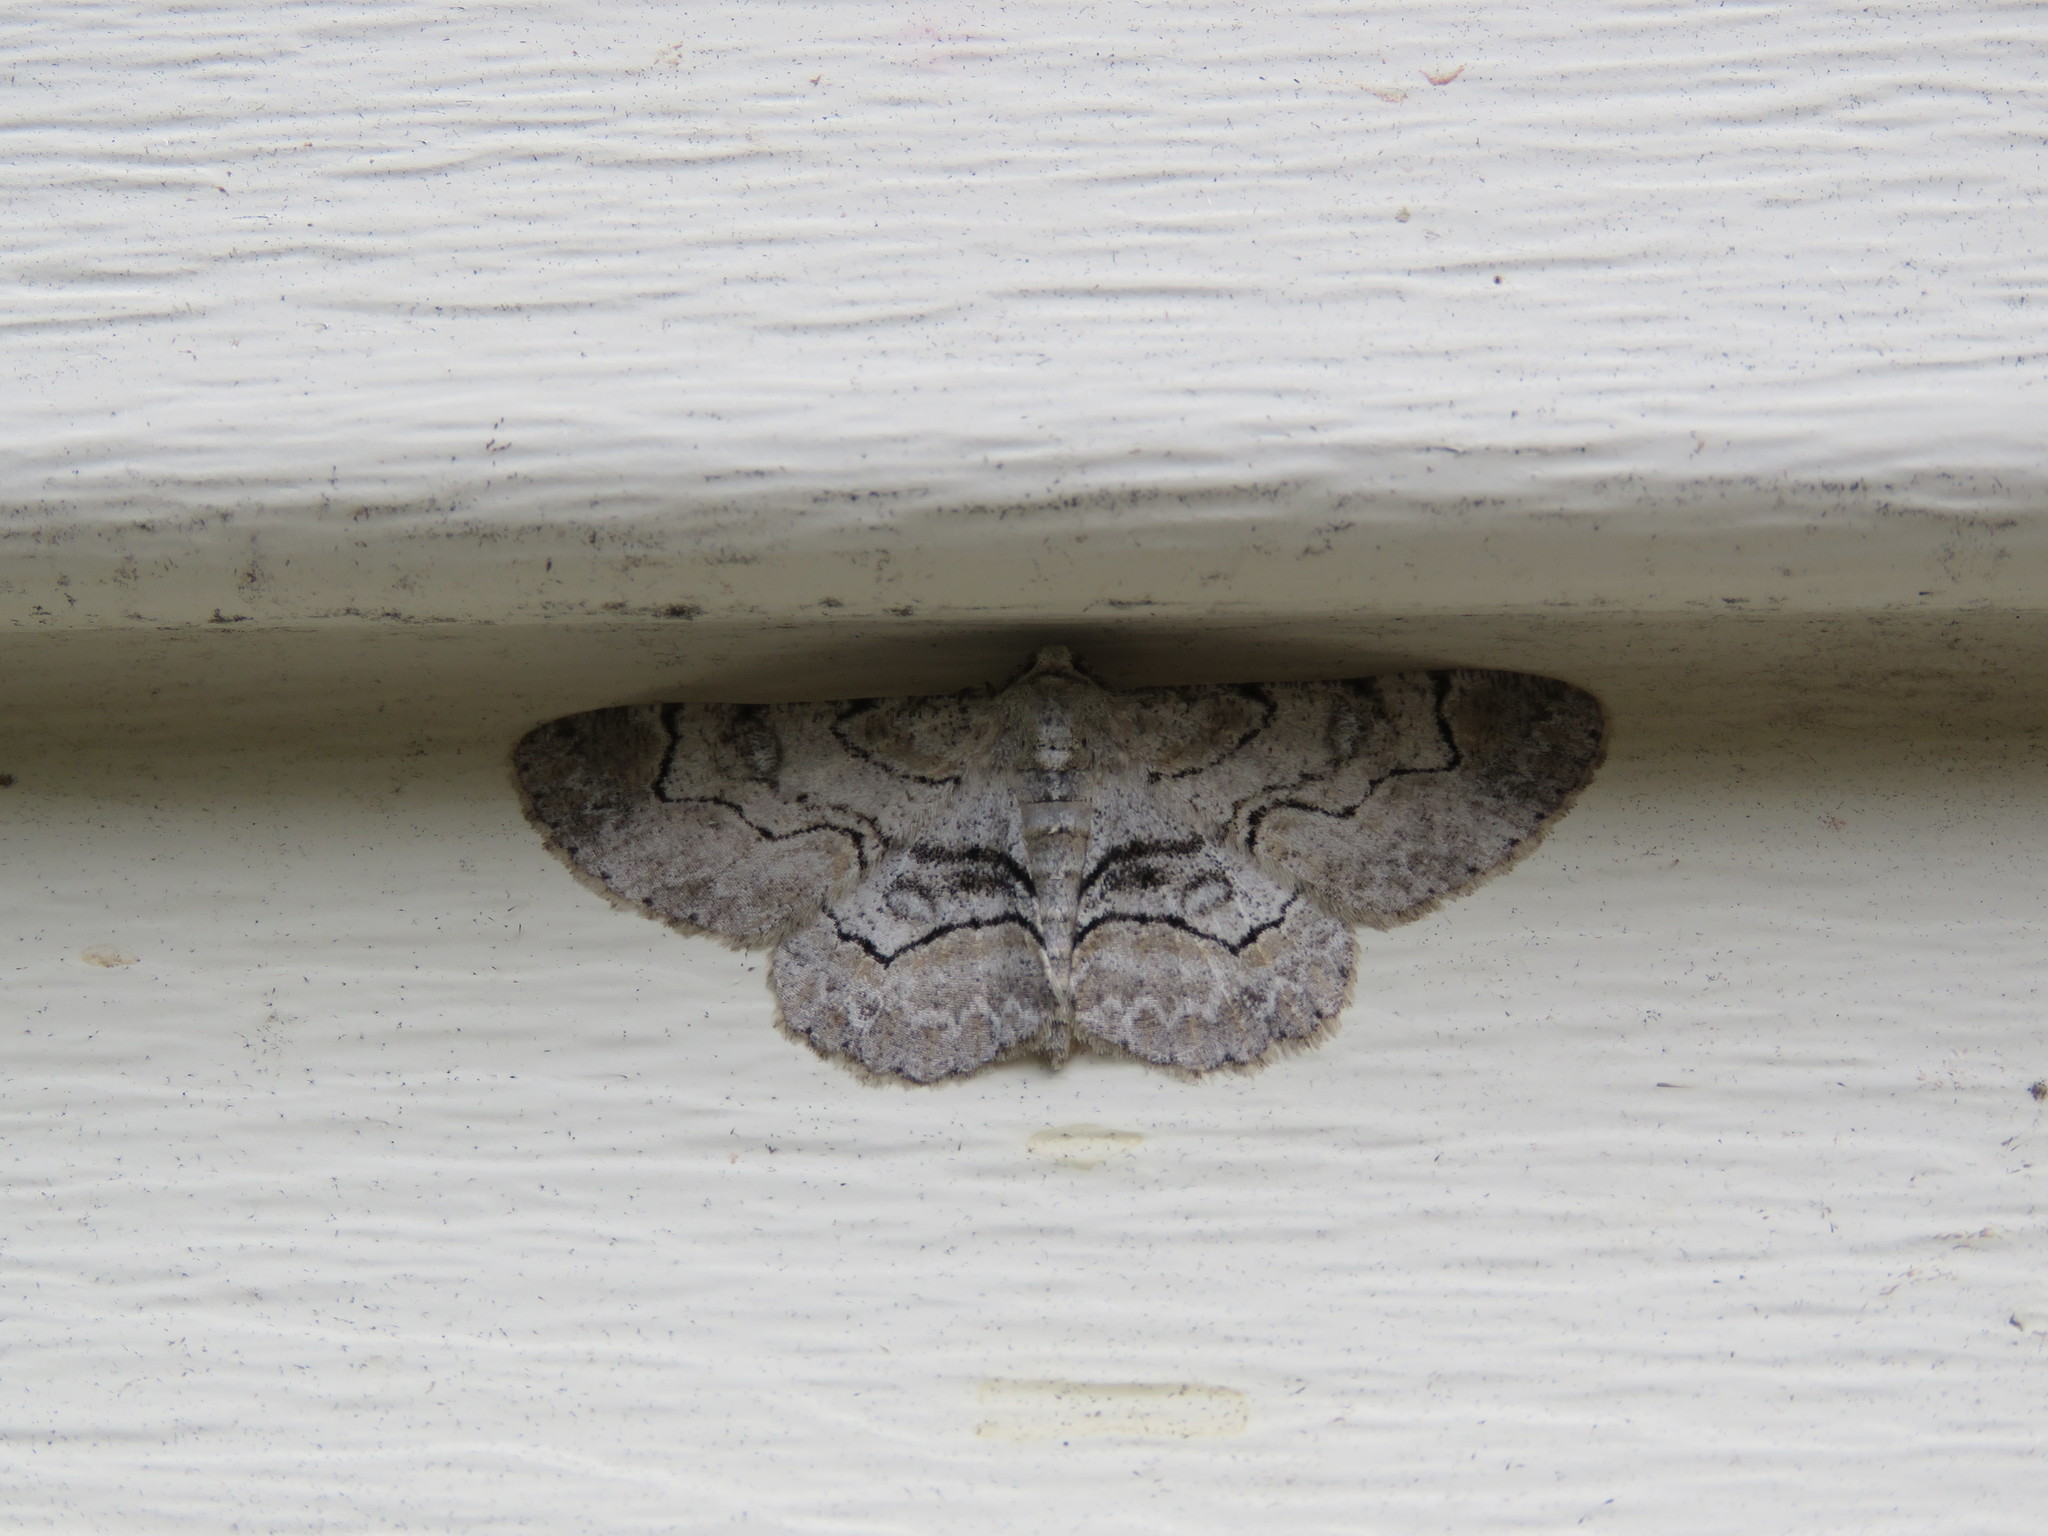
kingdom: Animalia
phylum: Arthropoda
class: Insecta
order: Lepidoptera
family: Geometridae
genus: Iridopsis
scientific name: Iridopsis larvaria
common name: Bent-line gray
